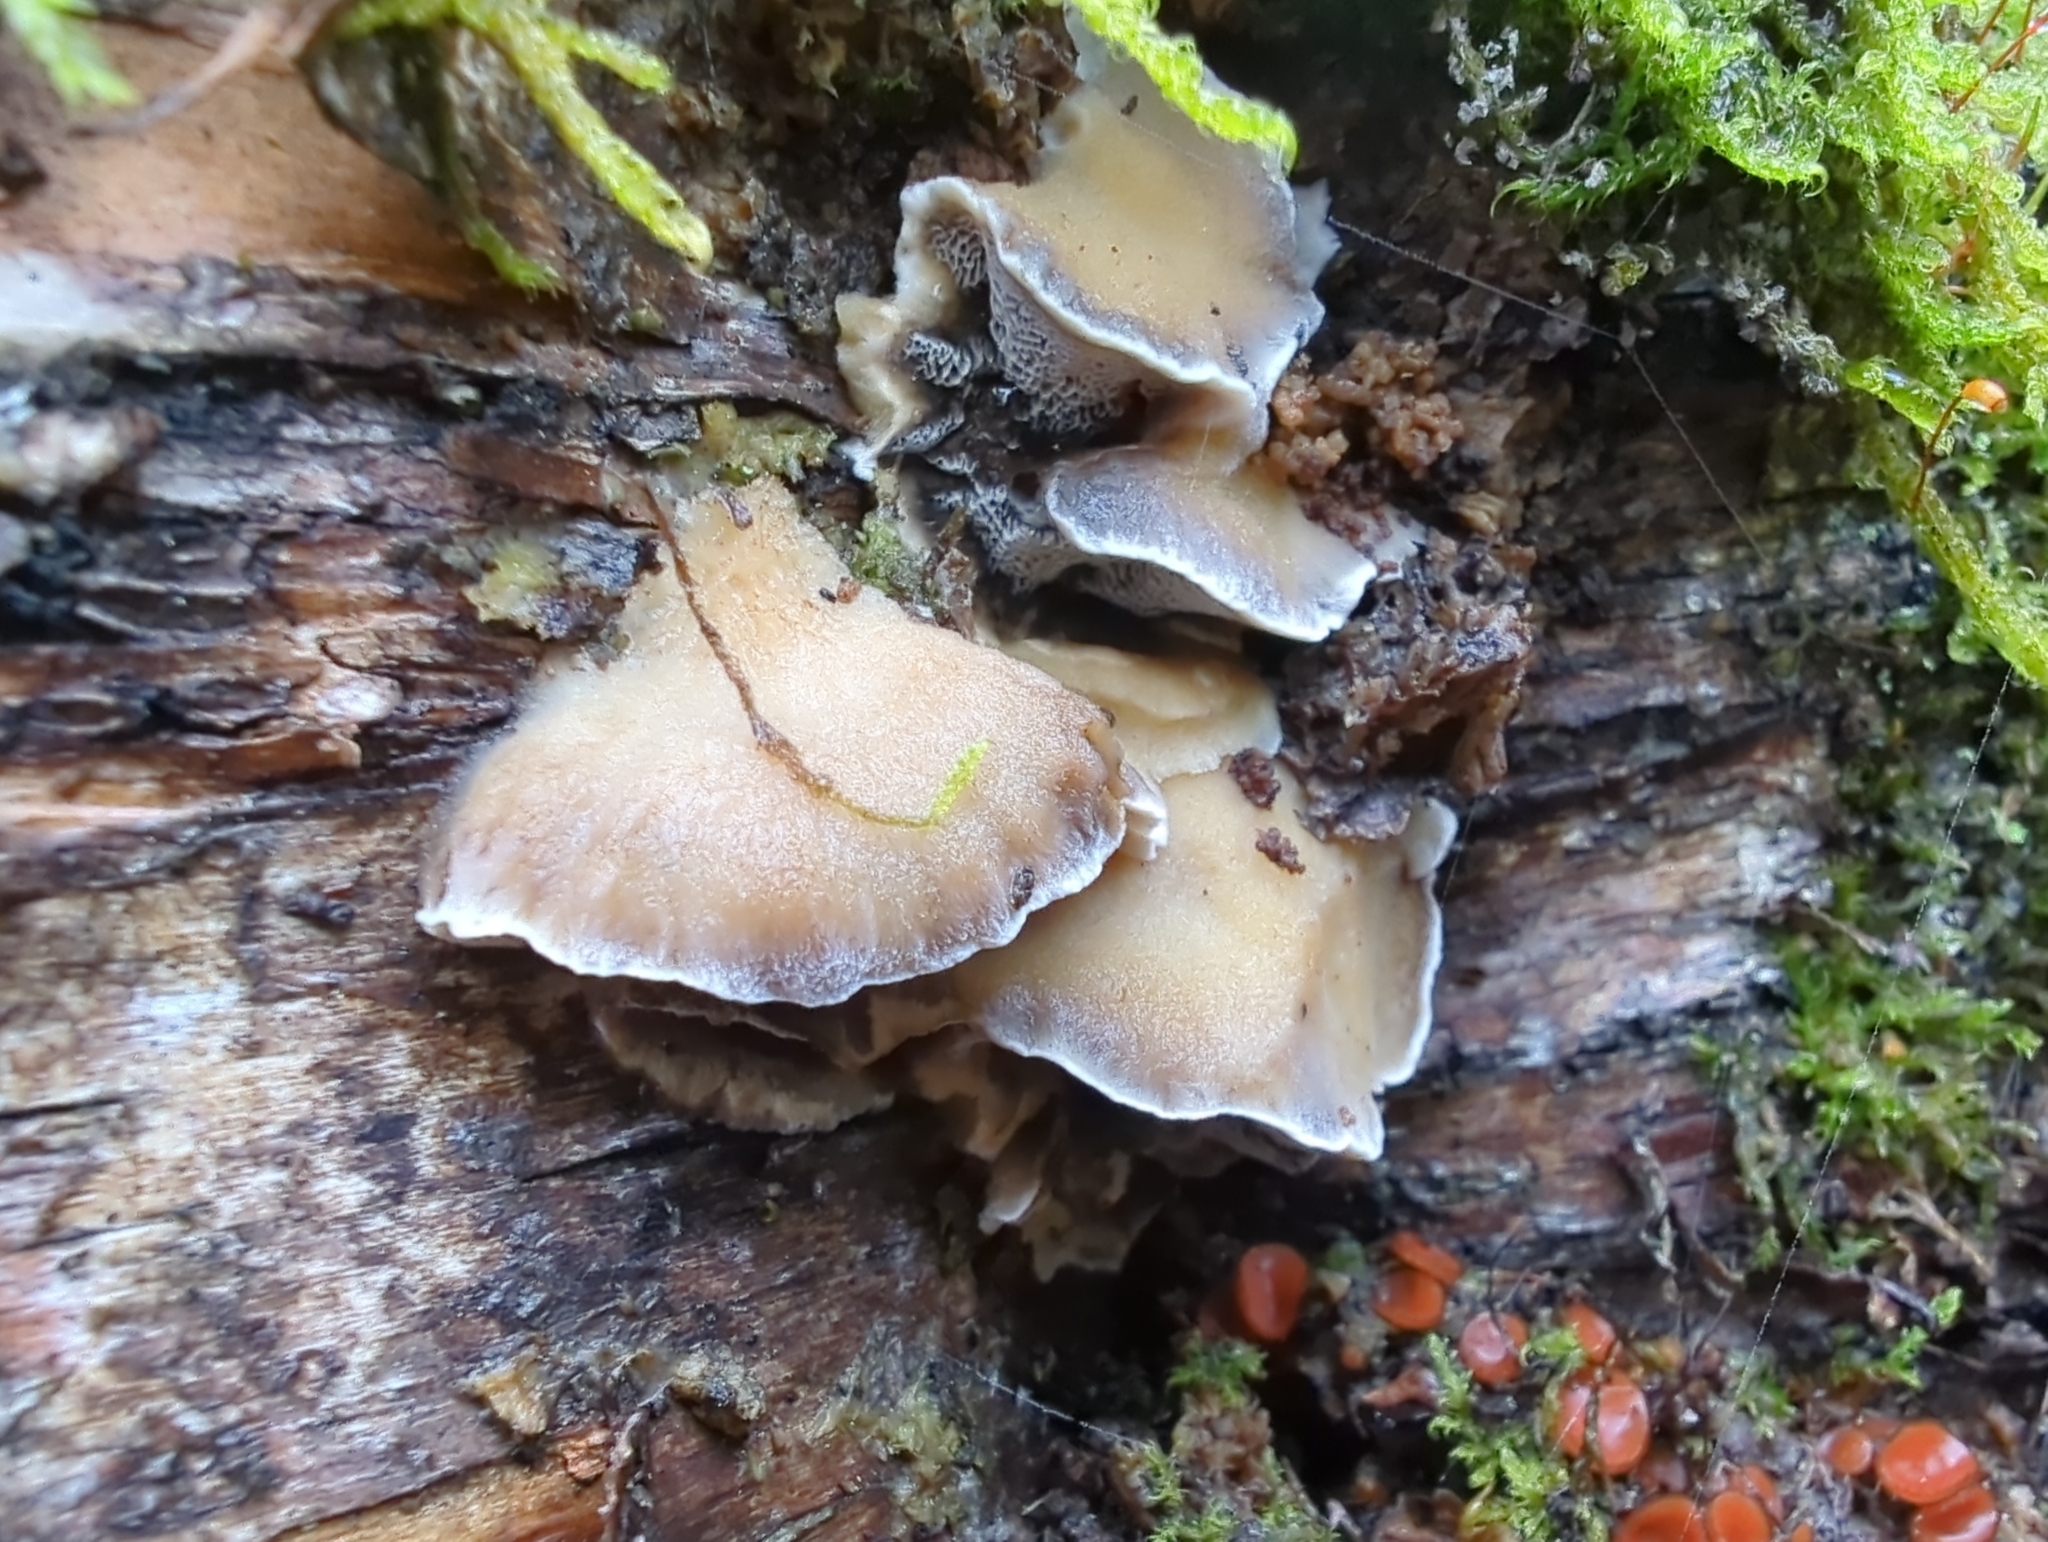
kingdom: Fungi
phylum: Basidiomycota
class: Agaricomycetes
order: Polyporales
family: Phanerochaetaceae
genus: Bjerkandera
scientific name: Bjerkandera adusta
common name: Smoky bracket
